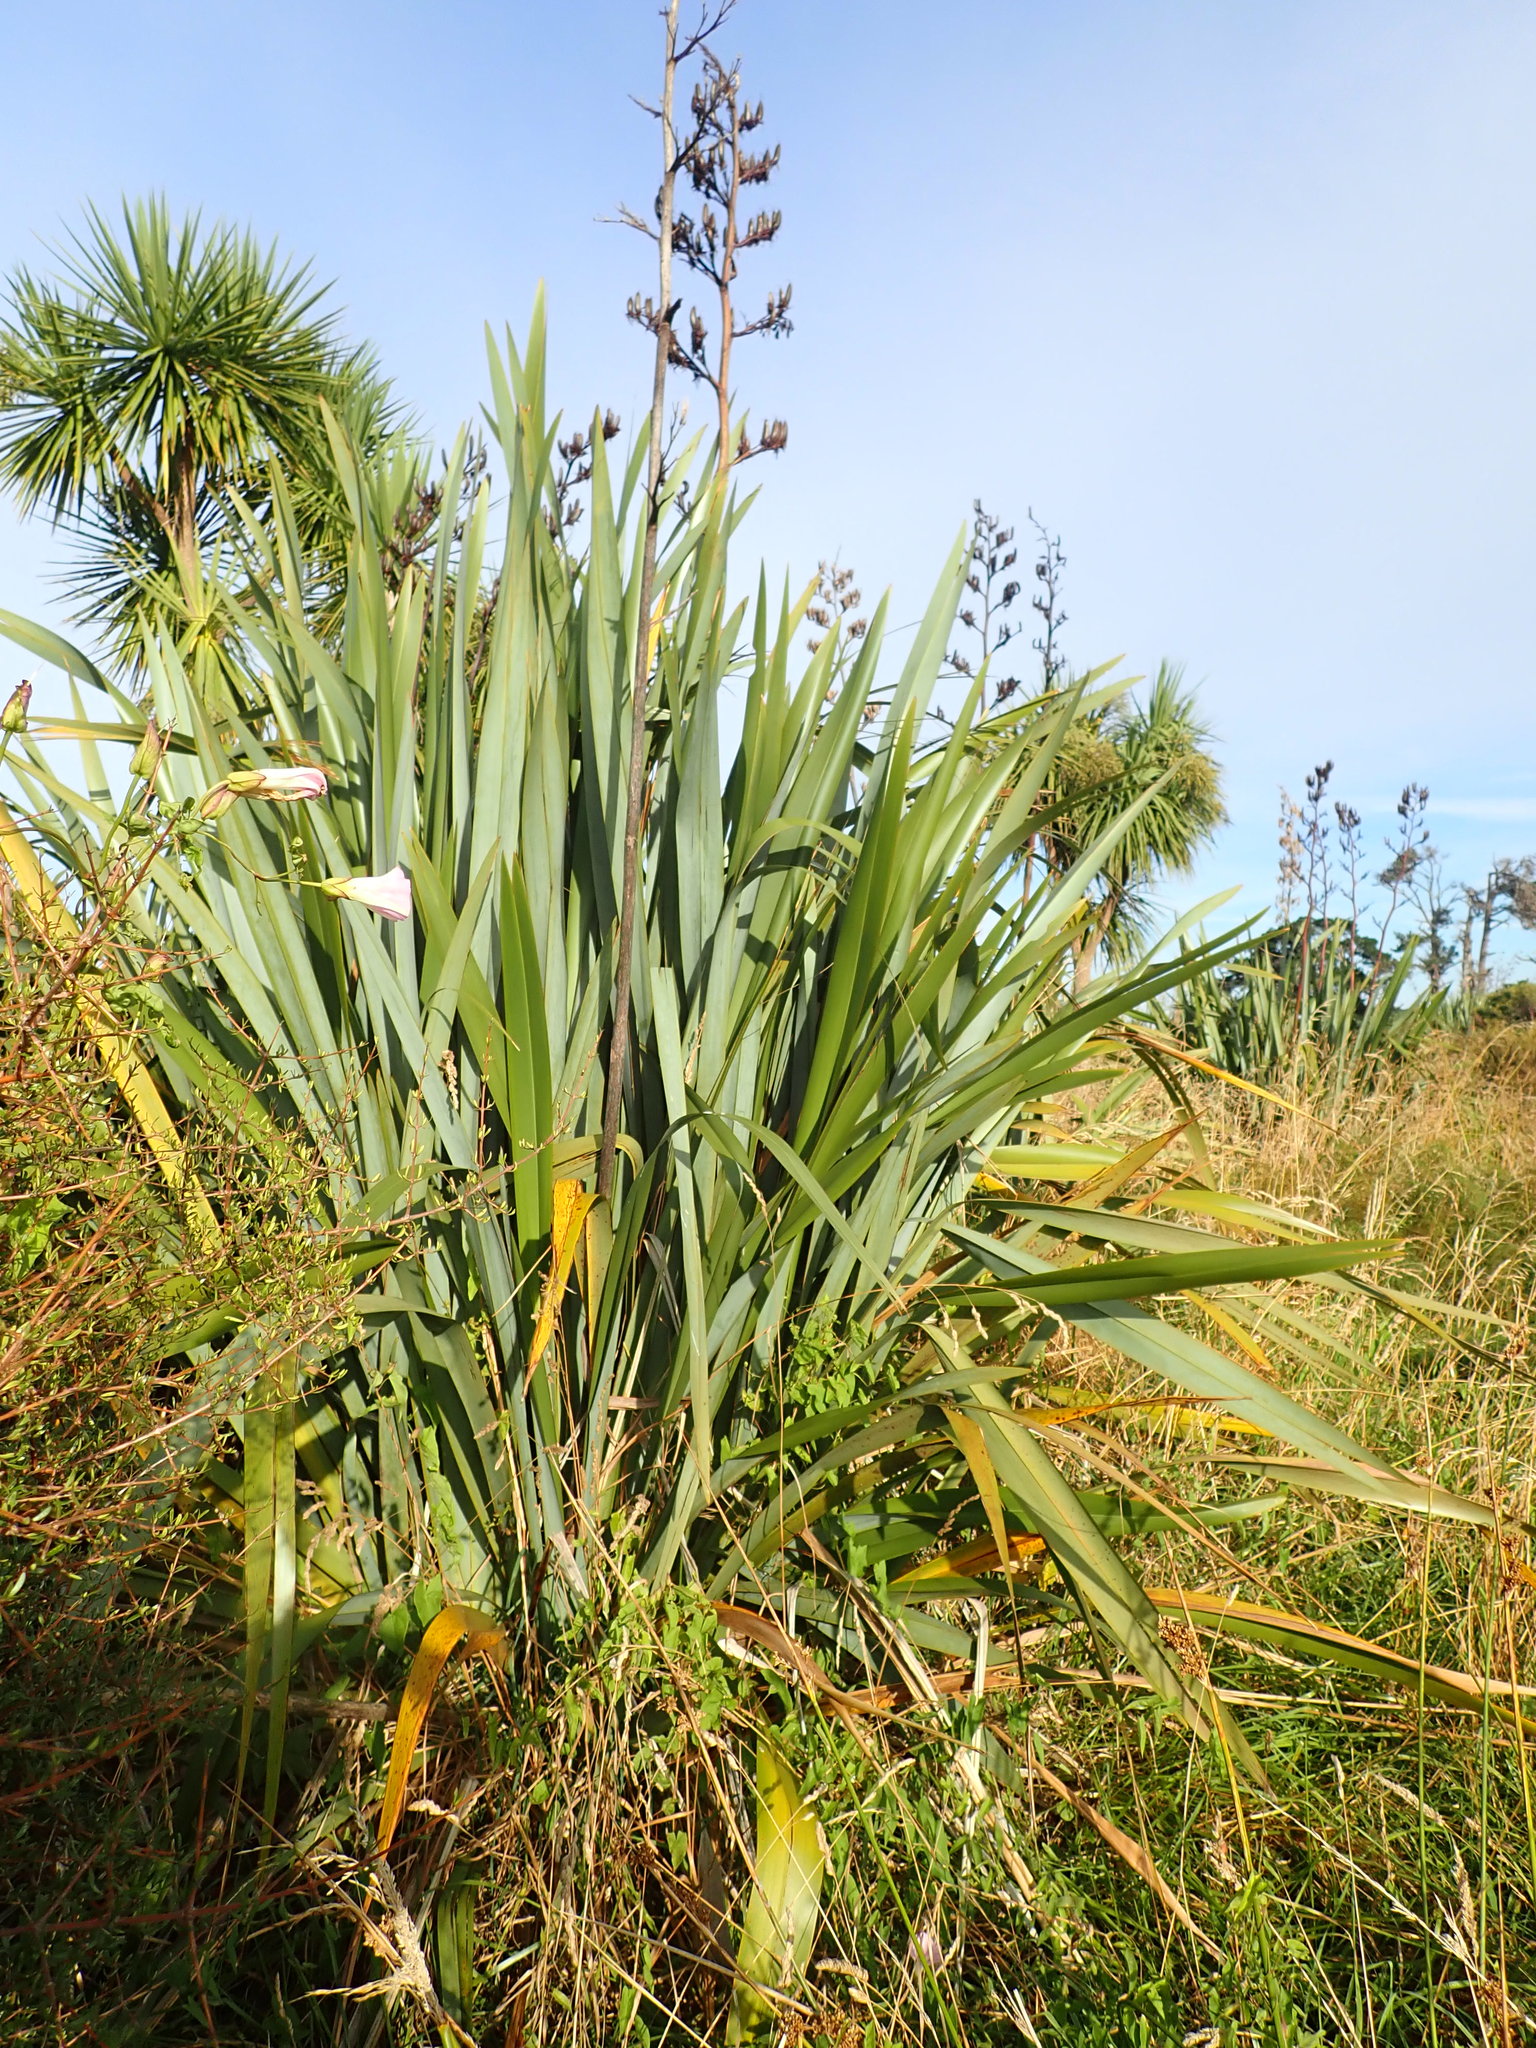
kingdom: Plantae
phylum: Tracheophyta
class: Liliopsida
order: Asparagales
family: Asphodelaceae
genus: Phormium
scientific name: Phormium tenax
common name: New zealand flax
